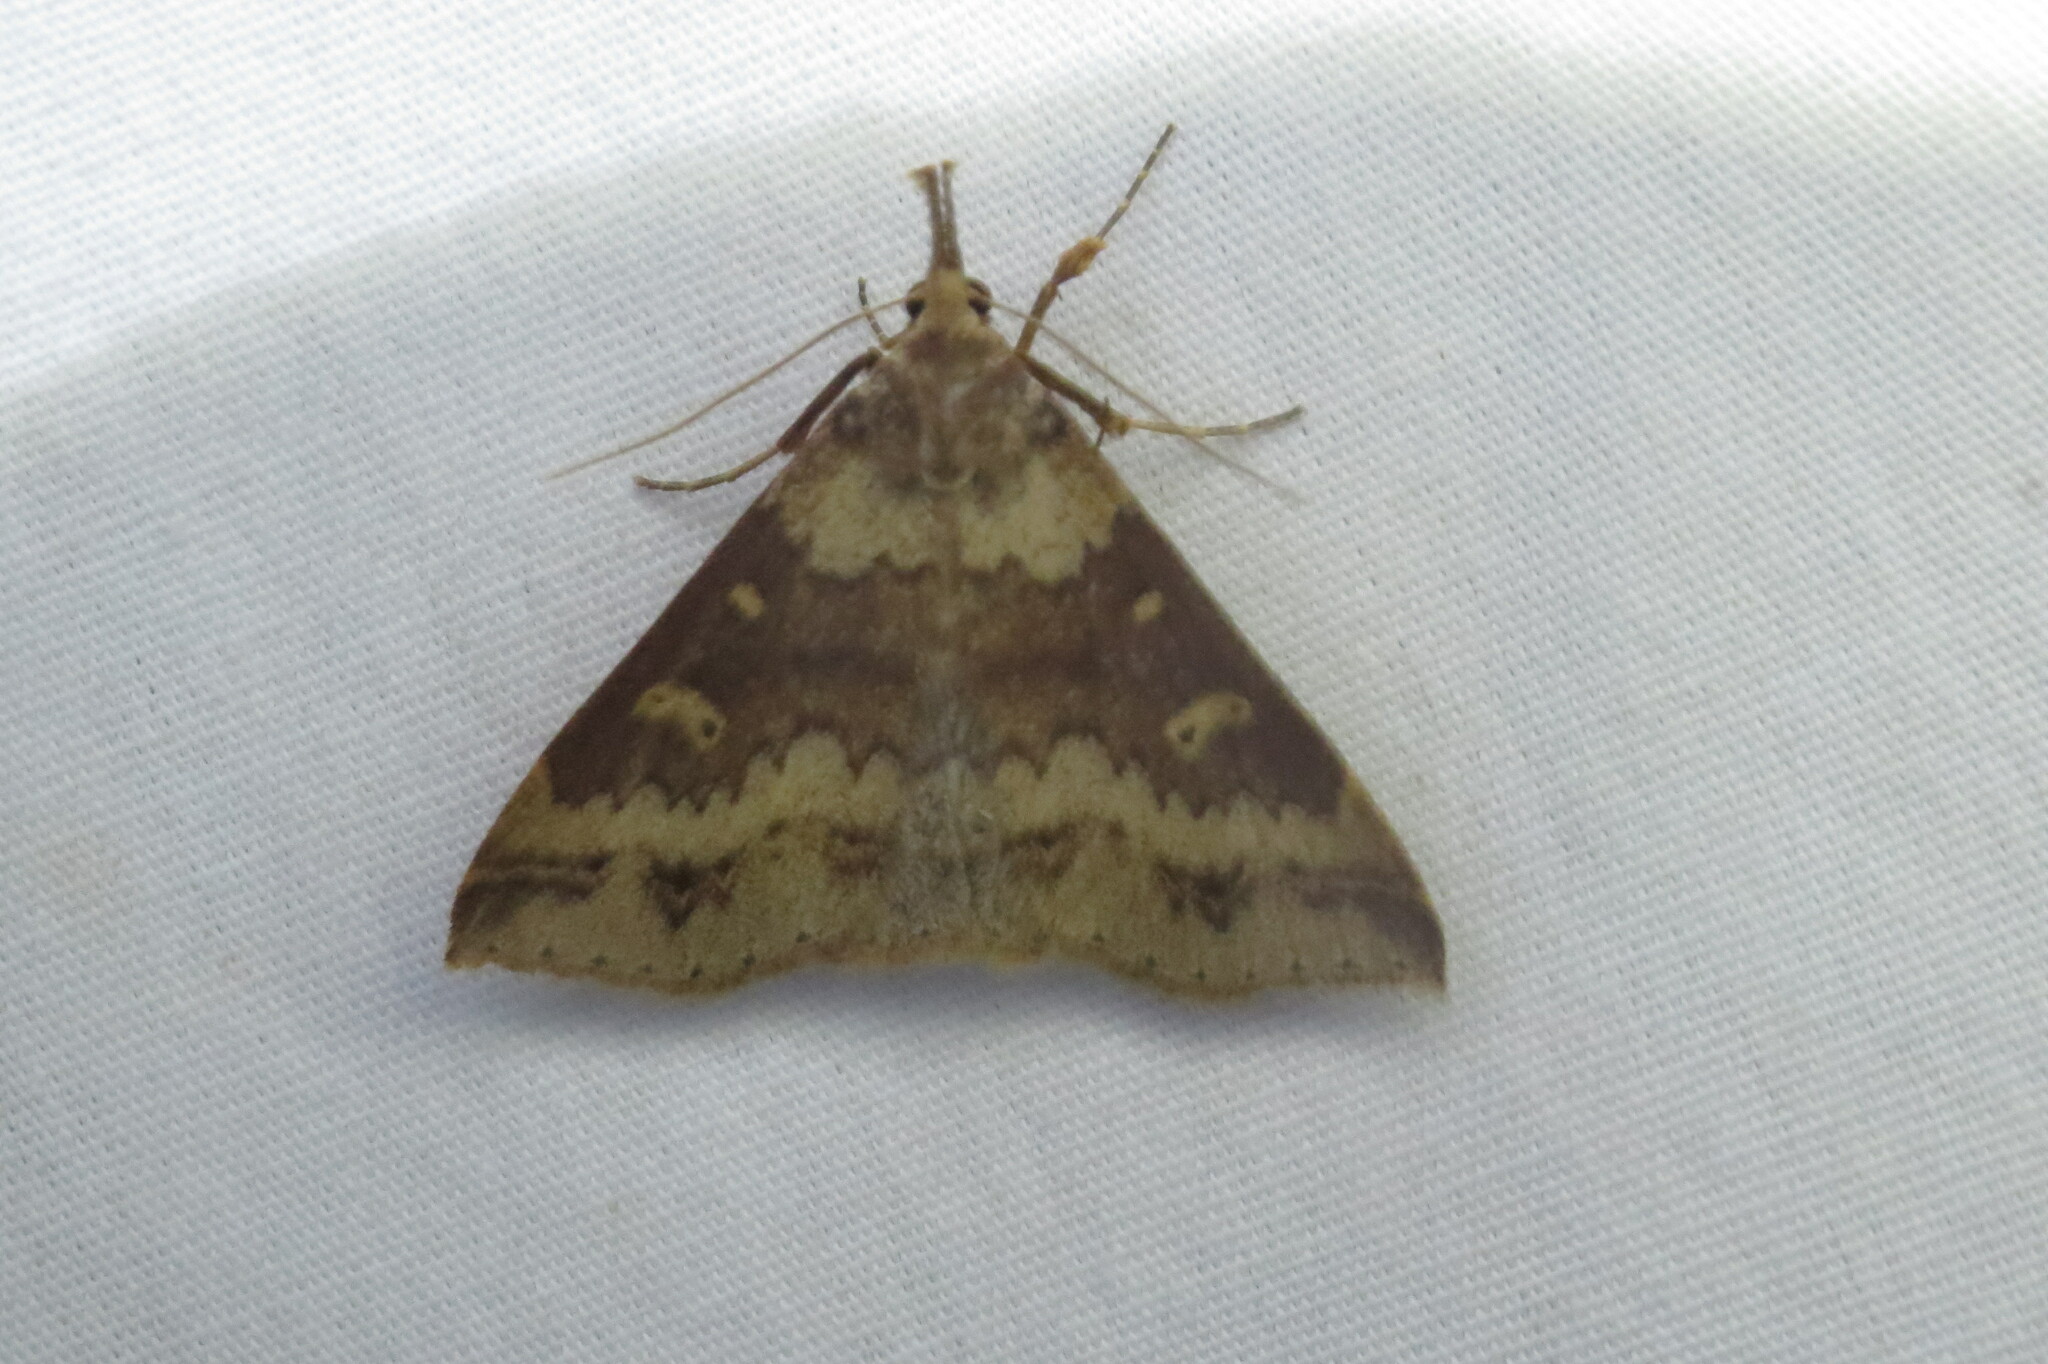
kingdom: Animalia
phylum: Arthropoda
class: Insecta
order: Lepidoptera
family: Erebidae
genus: Renia
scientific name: Renia discoloralis
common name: Discolored renia moth
